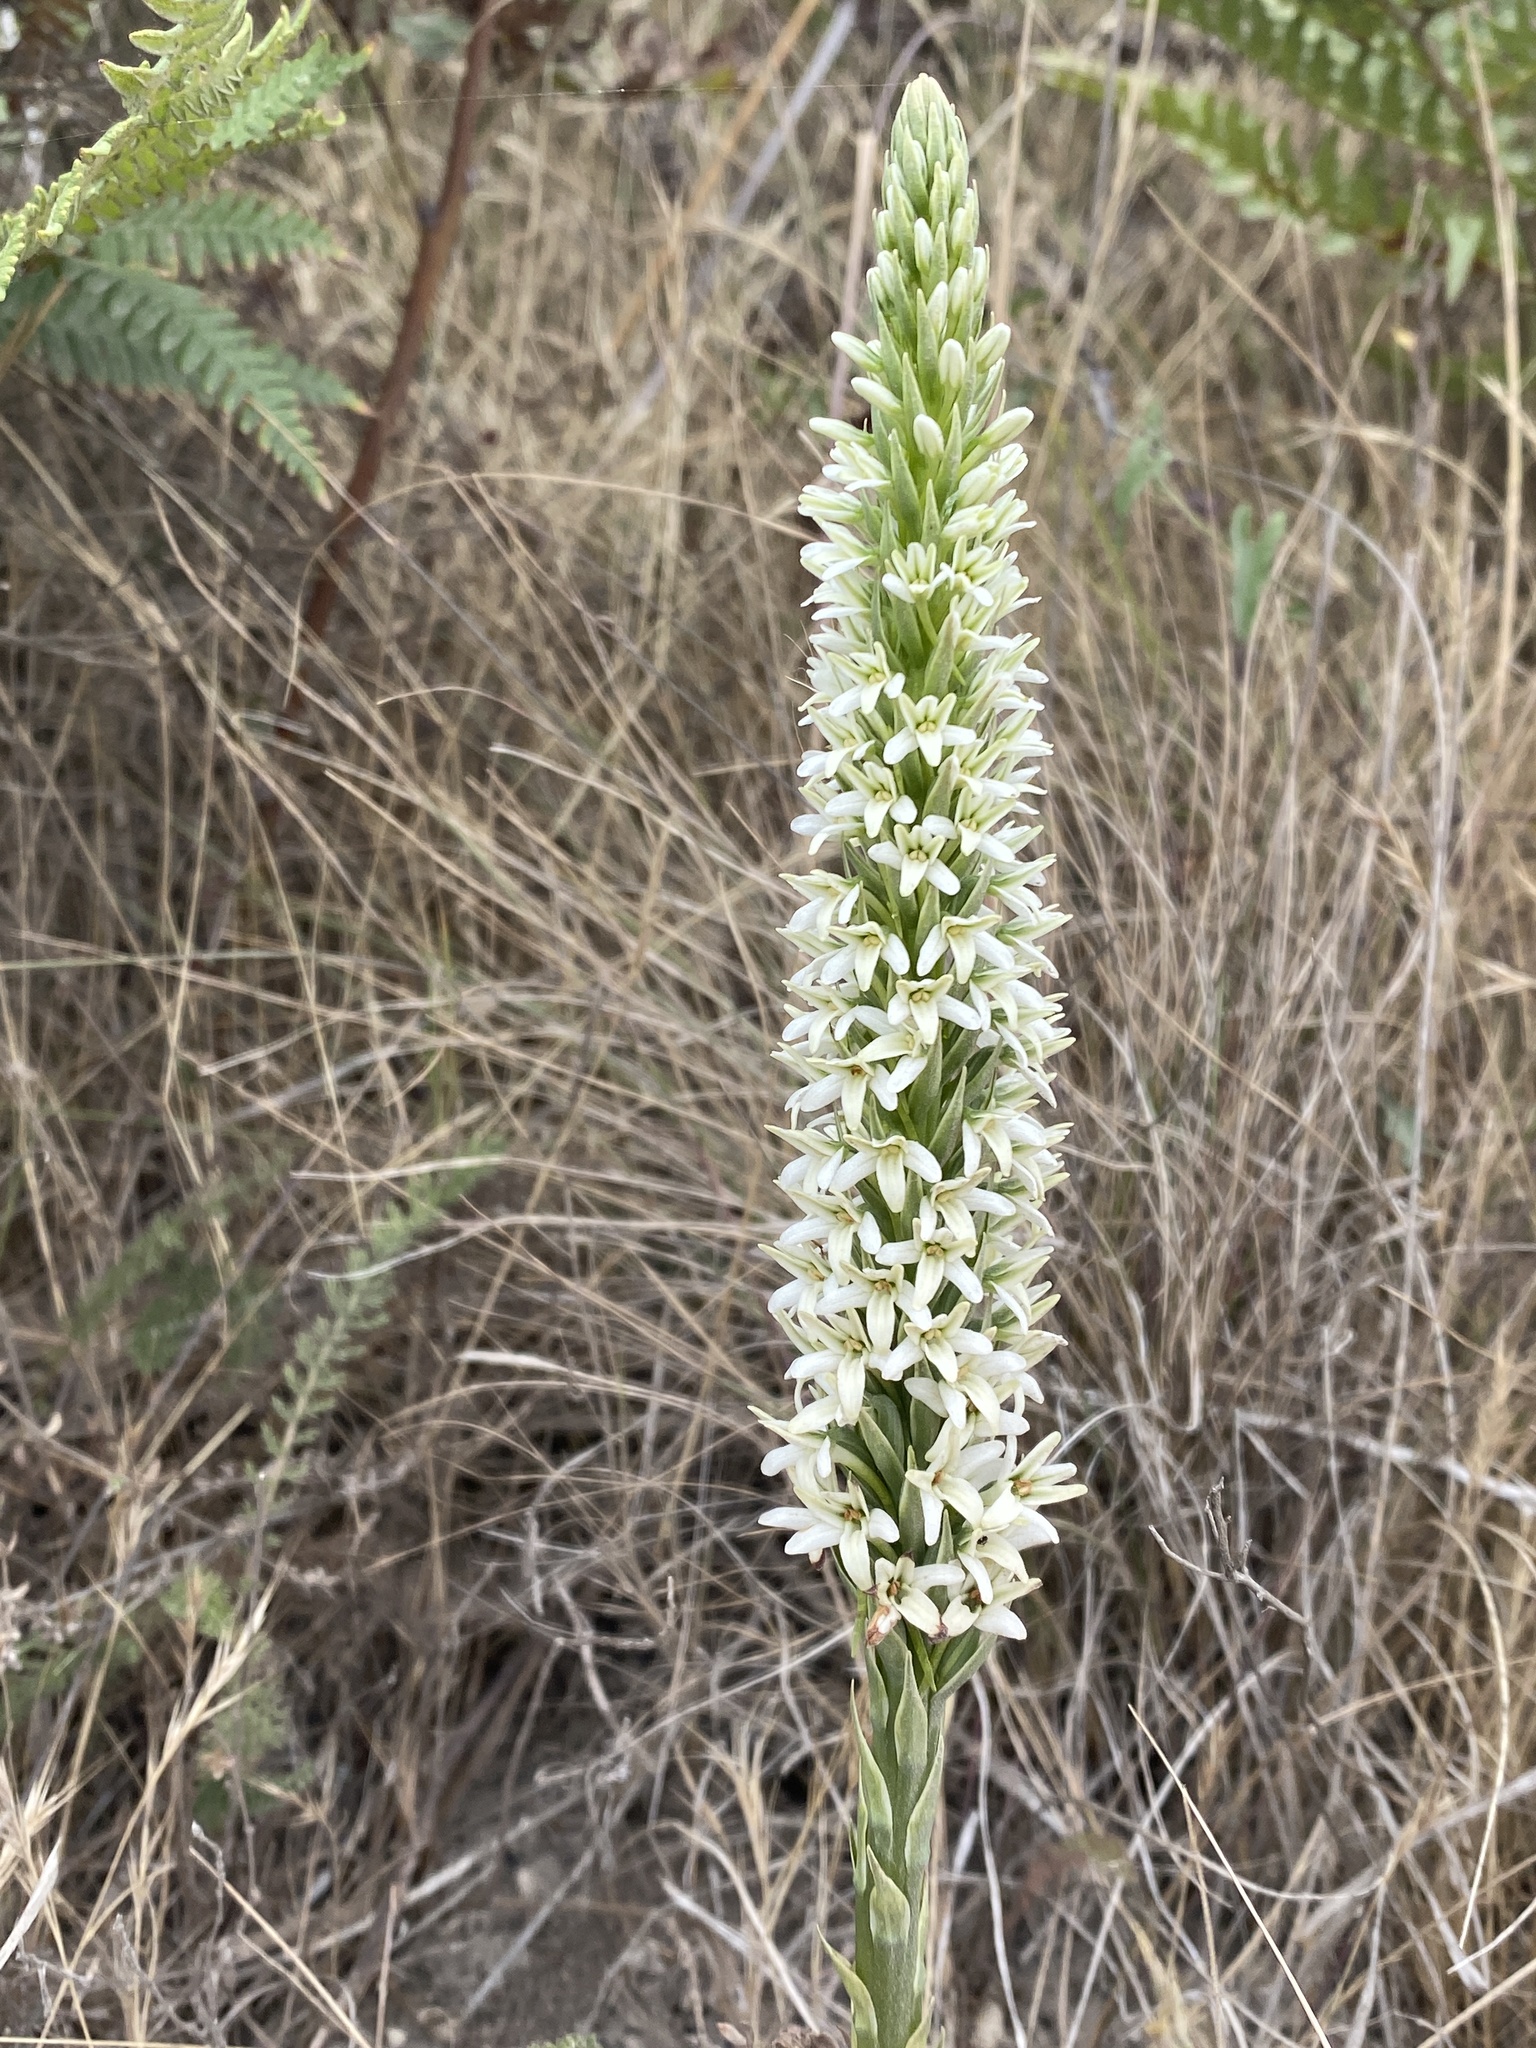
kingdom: Plantae
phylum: Tracheophyta
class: Liliopsida
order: Asparagales
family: Orchidaceae
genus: Platanthera
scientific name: Platanthera elegans
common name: Coast piperia
